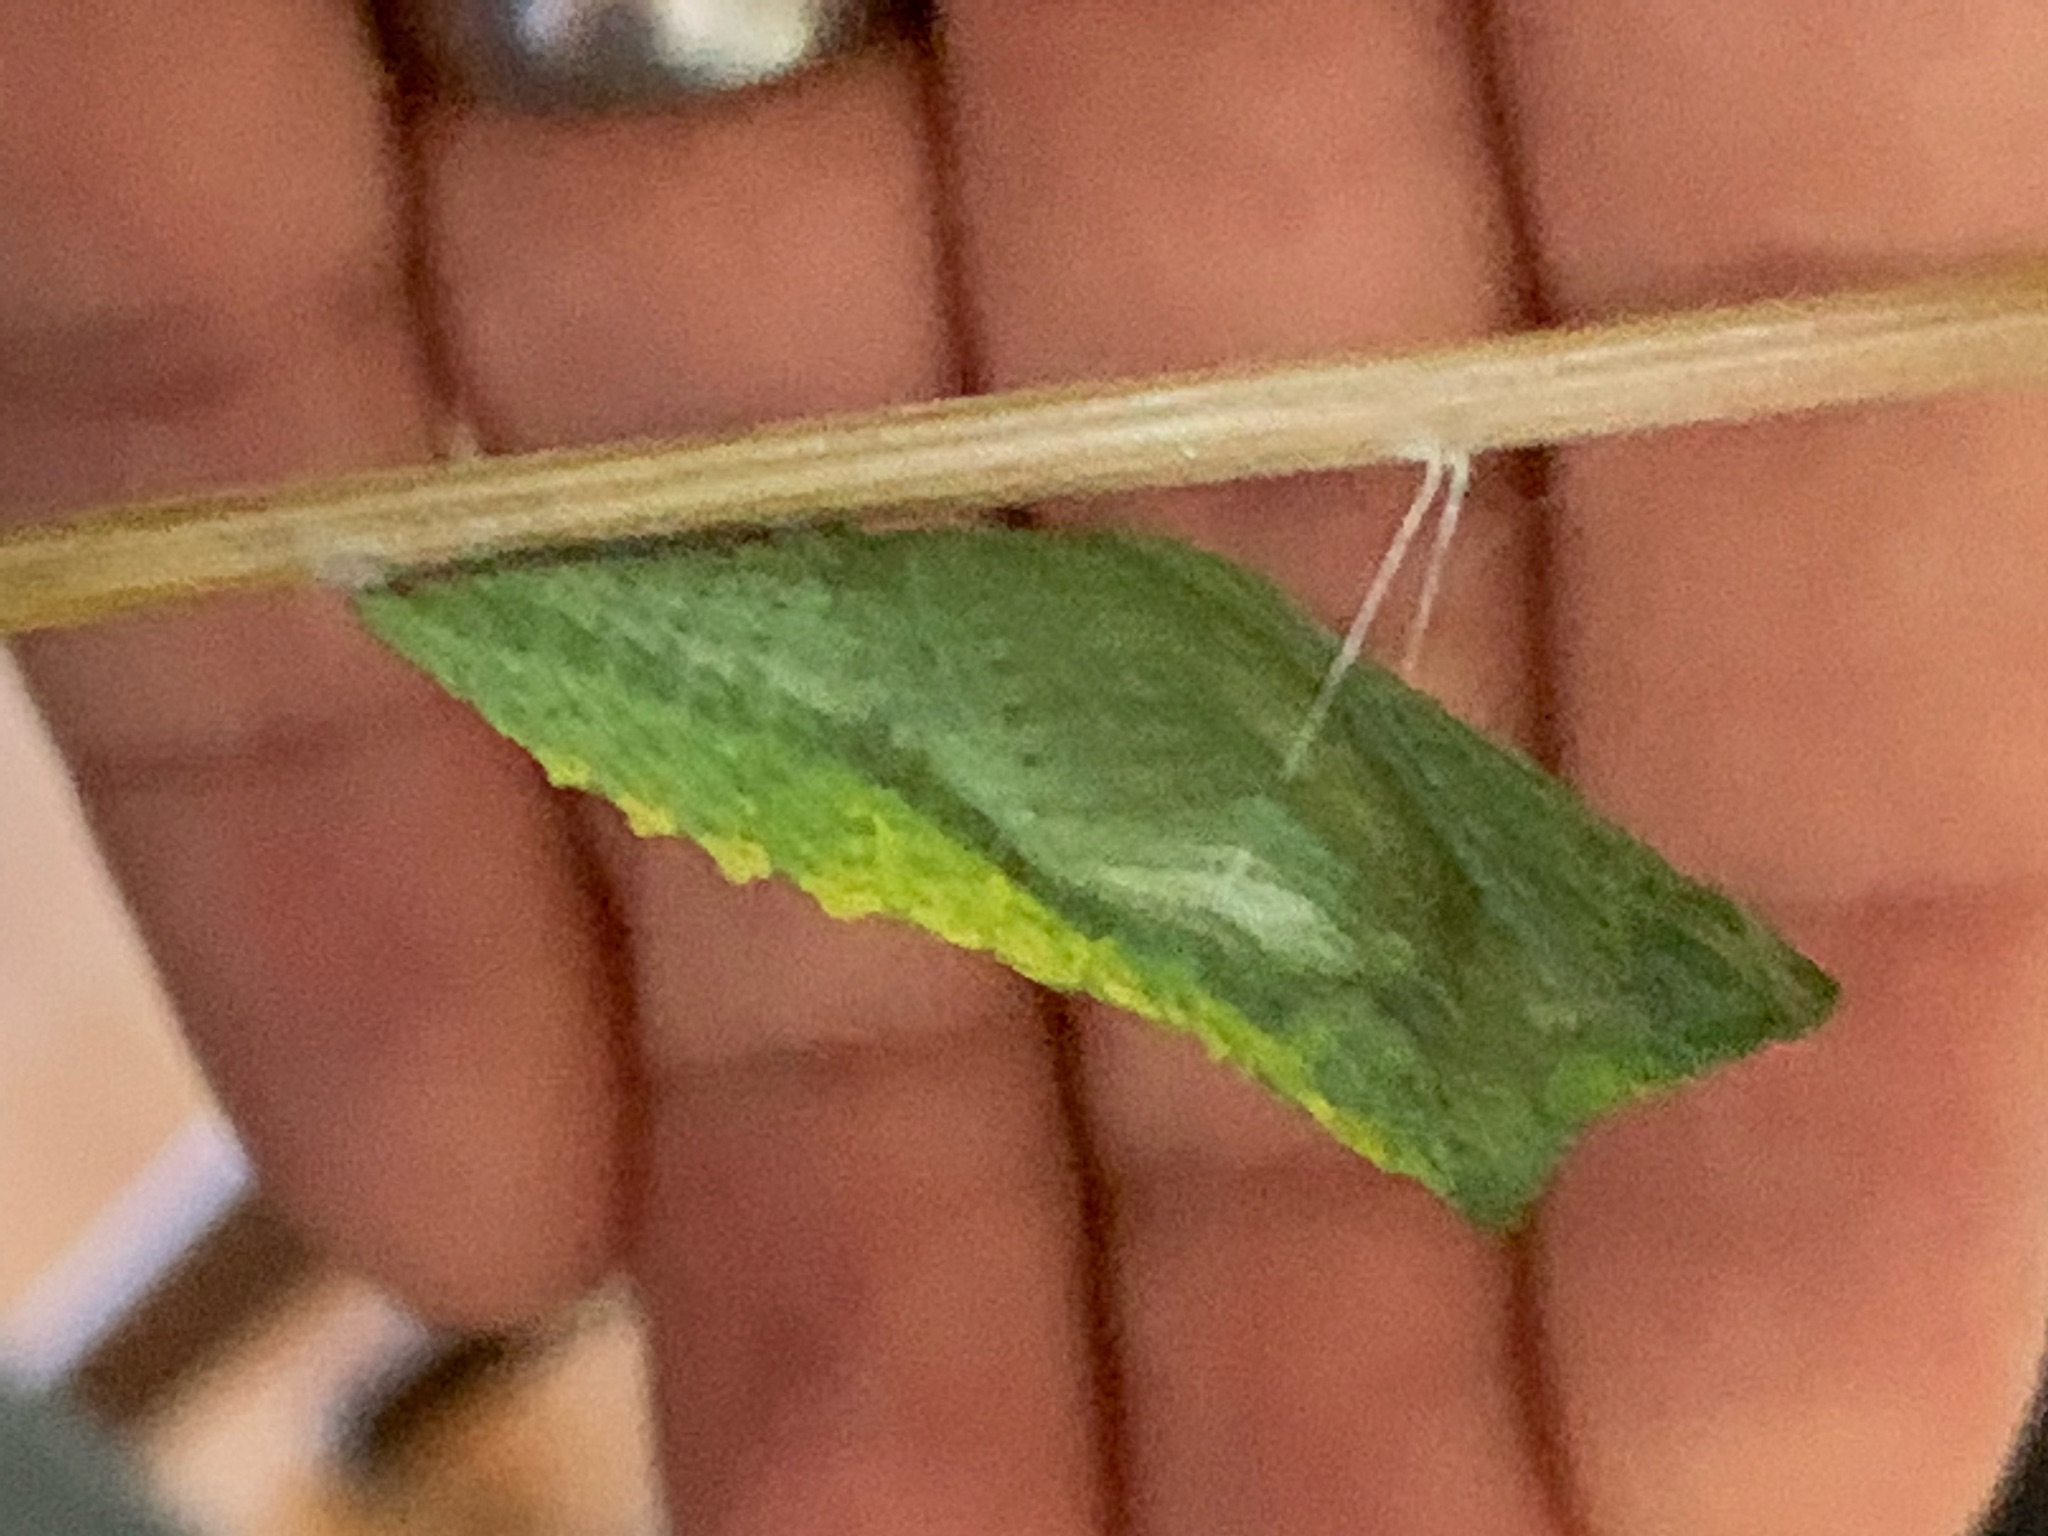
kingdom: Animalia
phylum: Arthropoda
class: Insecta
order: Lepidoptera
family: Papilionidae
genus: Papilio
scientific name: Papilio zelicaon
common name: Anise swallowtail
